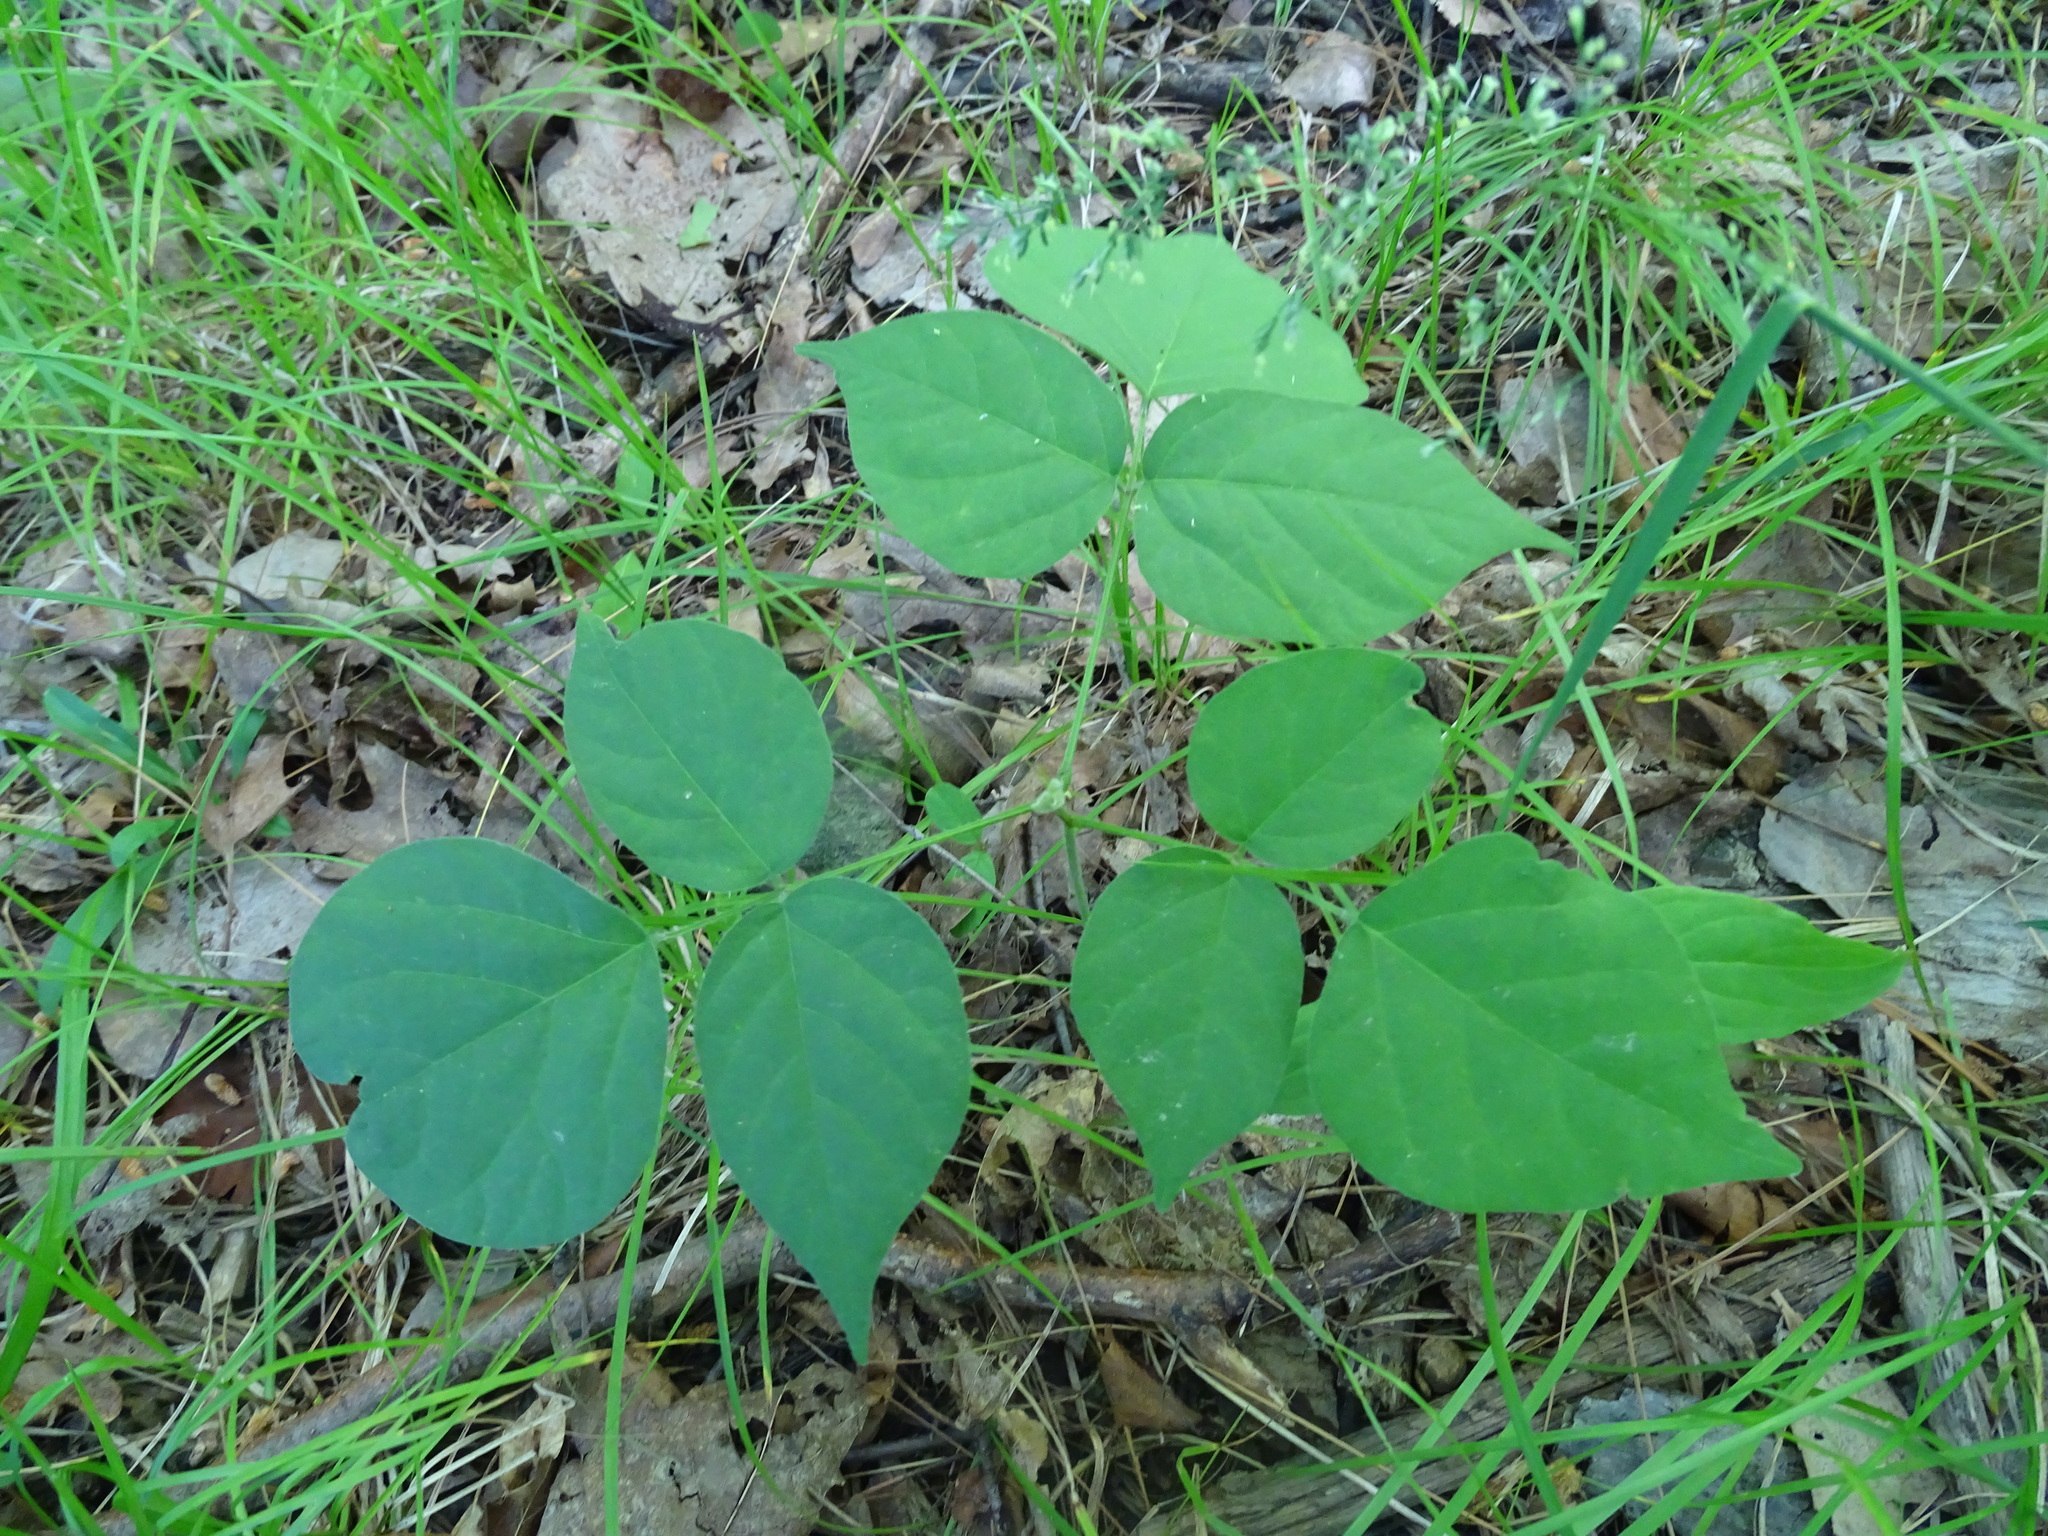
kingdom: Plantae
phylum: Tracheophyta
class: Magnoliopsida
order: Fabales
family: Fabaceae
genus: Hylodesmum
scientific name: Hylodesmum glutinosum
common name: Clustered-leaved tick-trefoil
